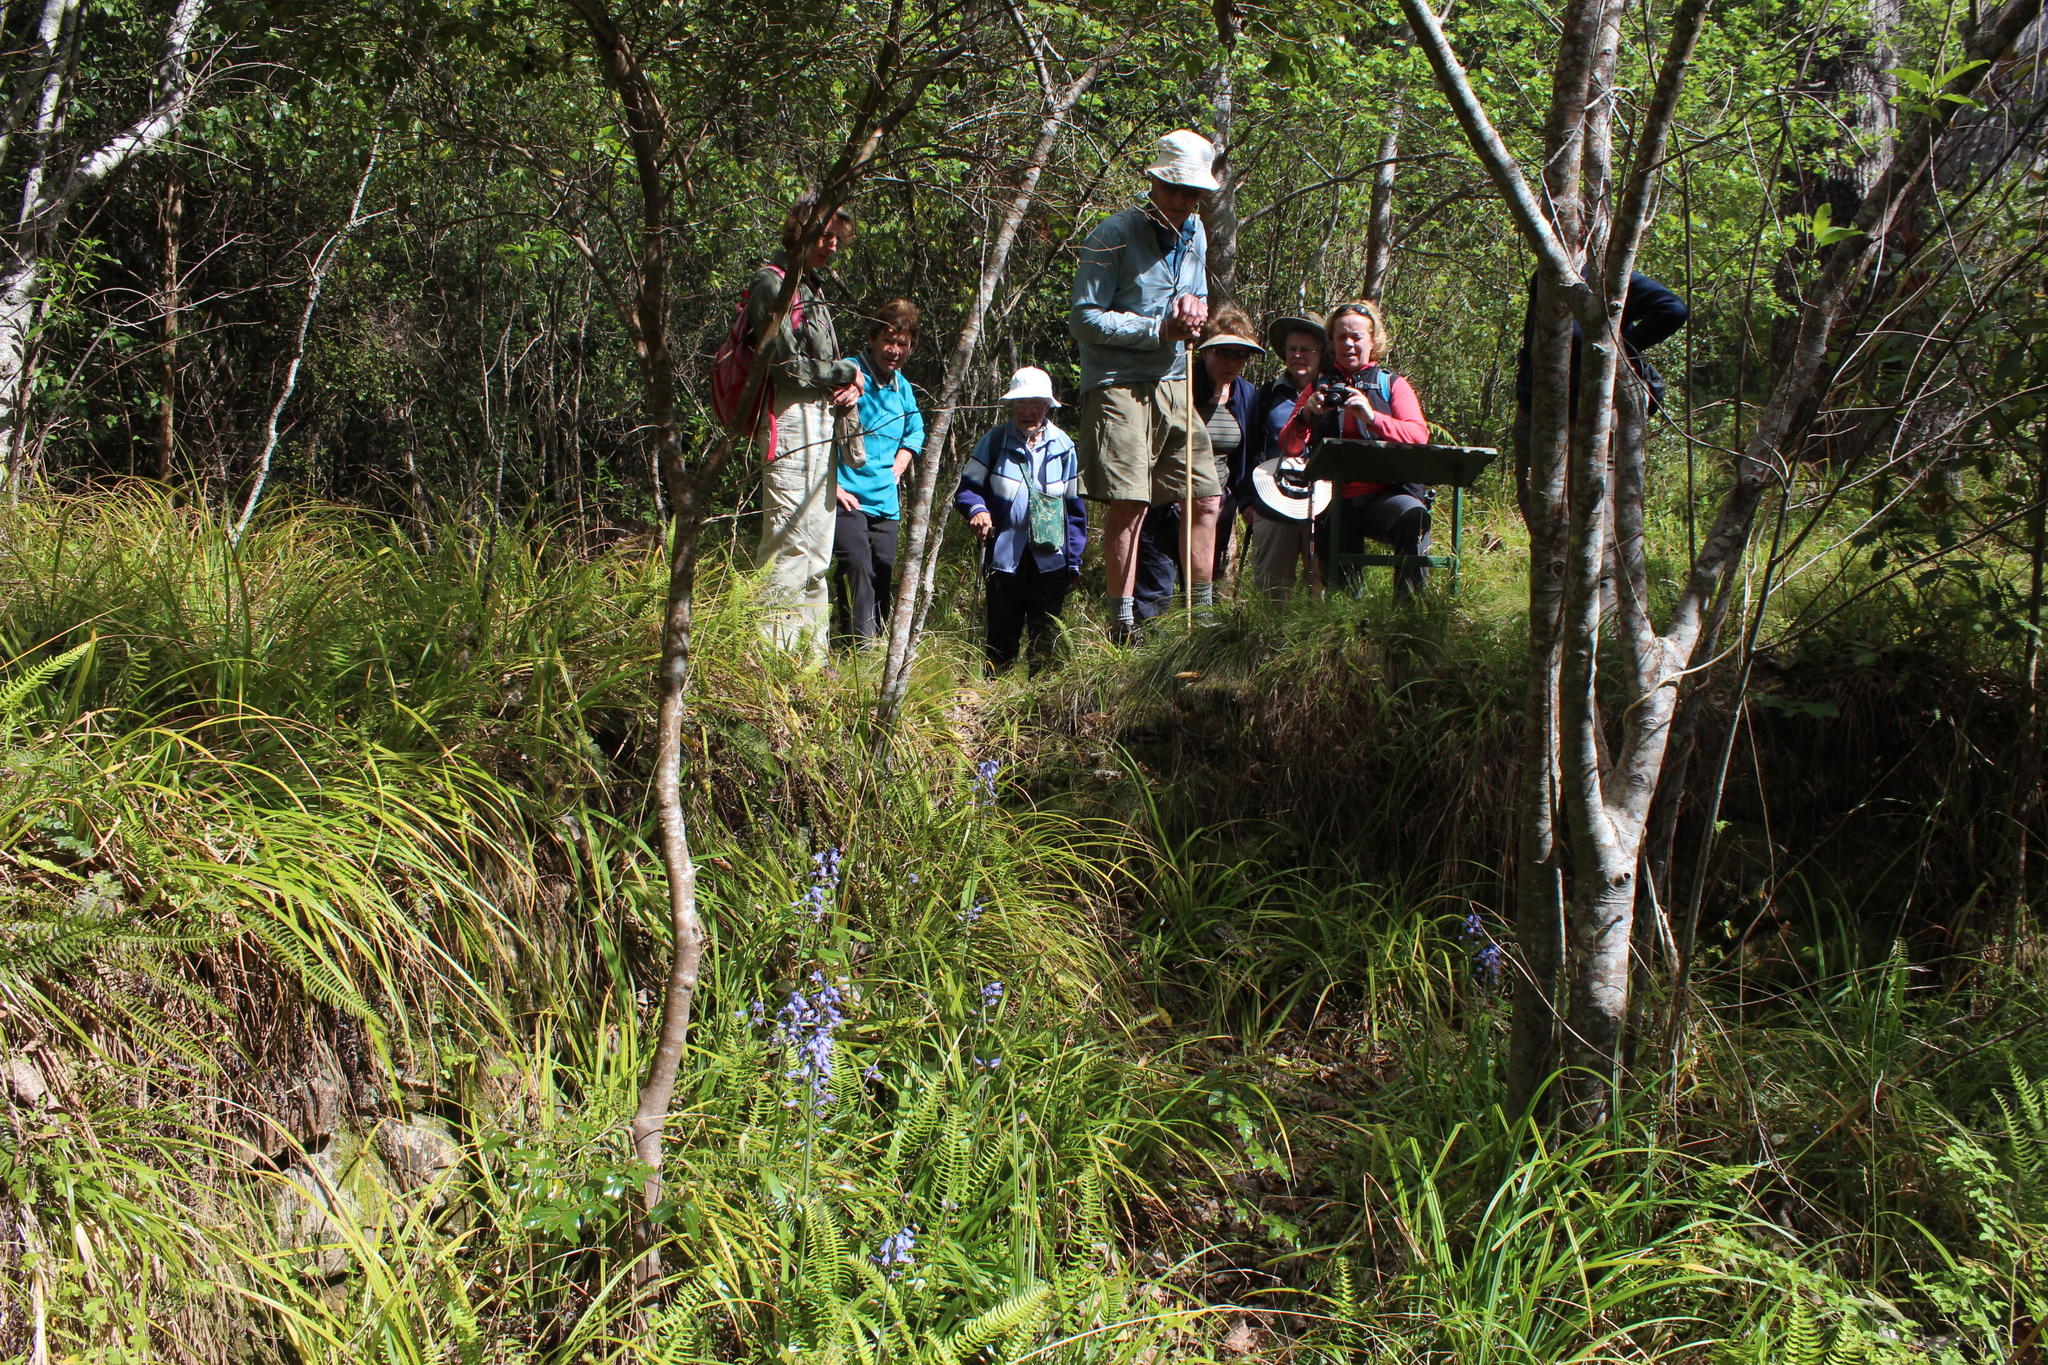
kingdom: Plantae
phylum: Tracheophyta
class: Liliopsida
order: Asparagales
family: Asparagaceae
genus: Hyacinthoides
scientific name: Hyacinthoides massartiana
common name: Hyacinthoides
